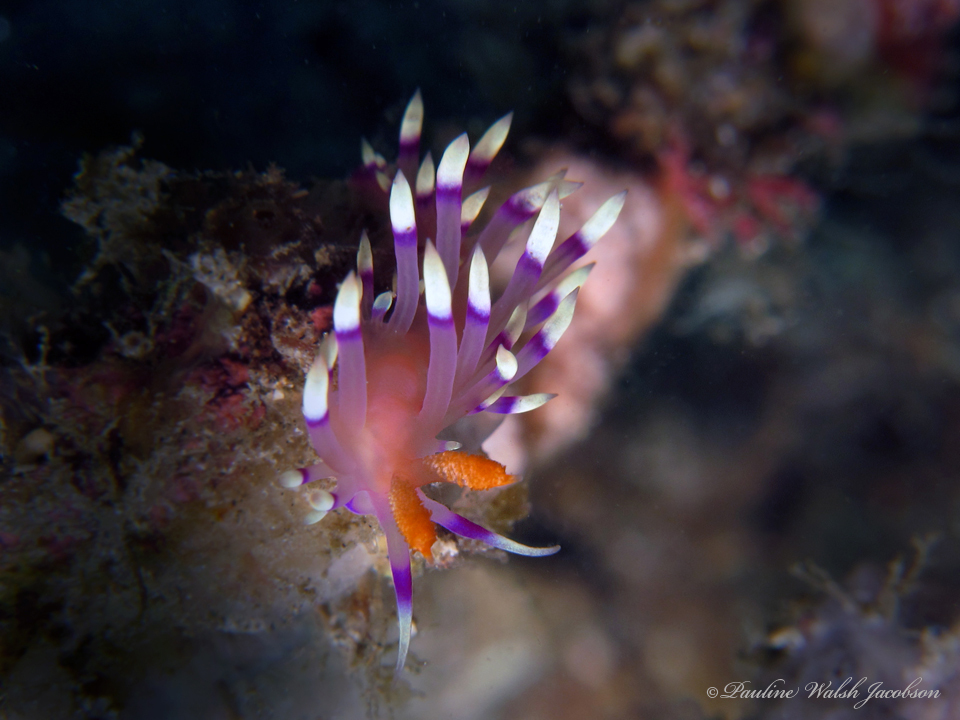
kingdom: Animalia
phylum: Mollusca
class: Gastropoda
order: Nudibranchia
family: Flabellinidae
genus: Coryphellina
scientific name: Coryphellina exoptata
